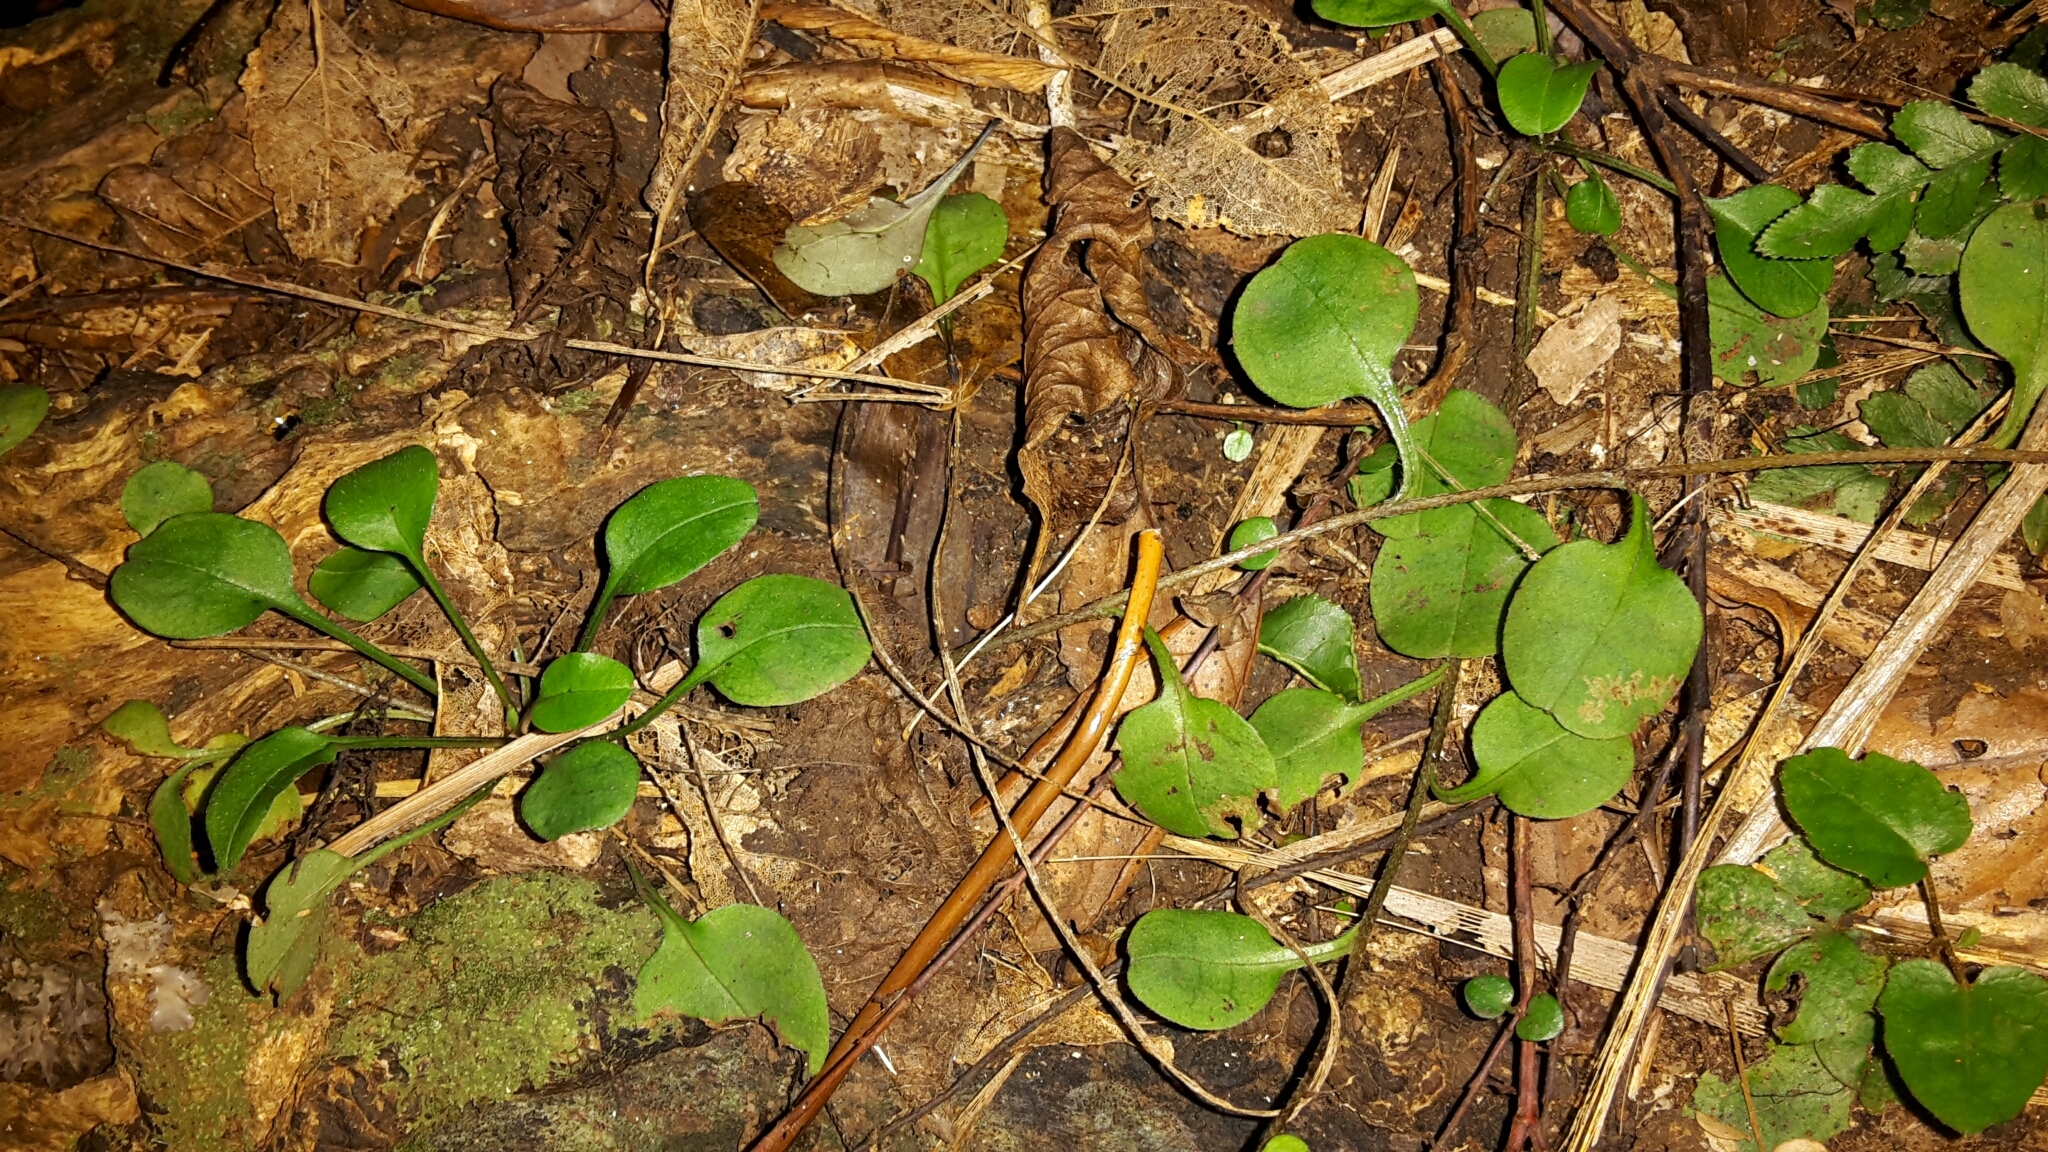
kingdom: Plantae
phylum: Tracheophyta
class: Magnoliopsida
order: Boraginales
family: Boraginaceae
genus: Myosotis
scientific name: Myosotis matthewsii
